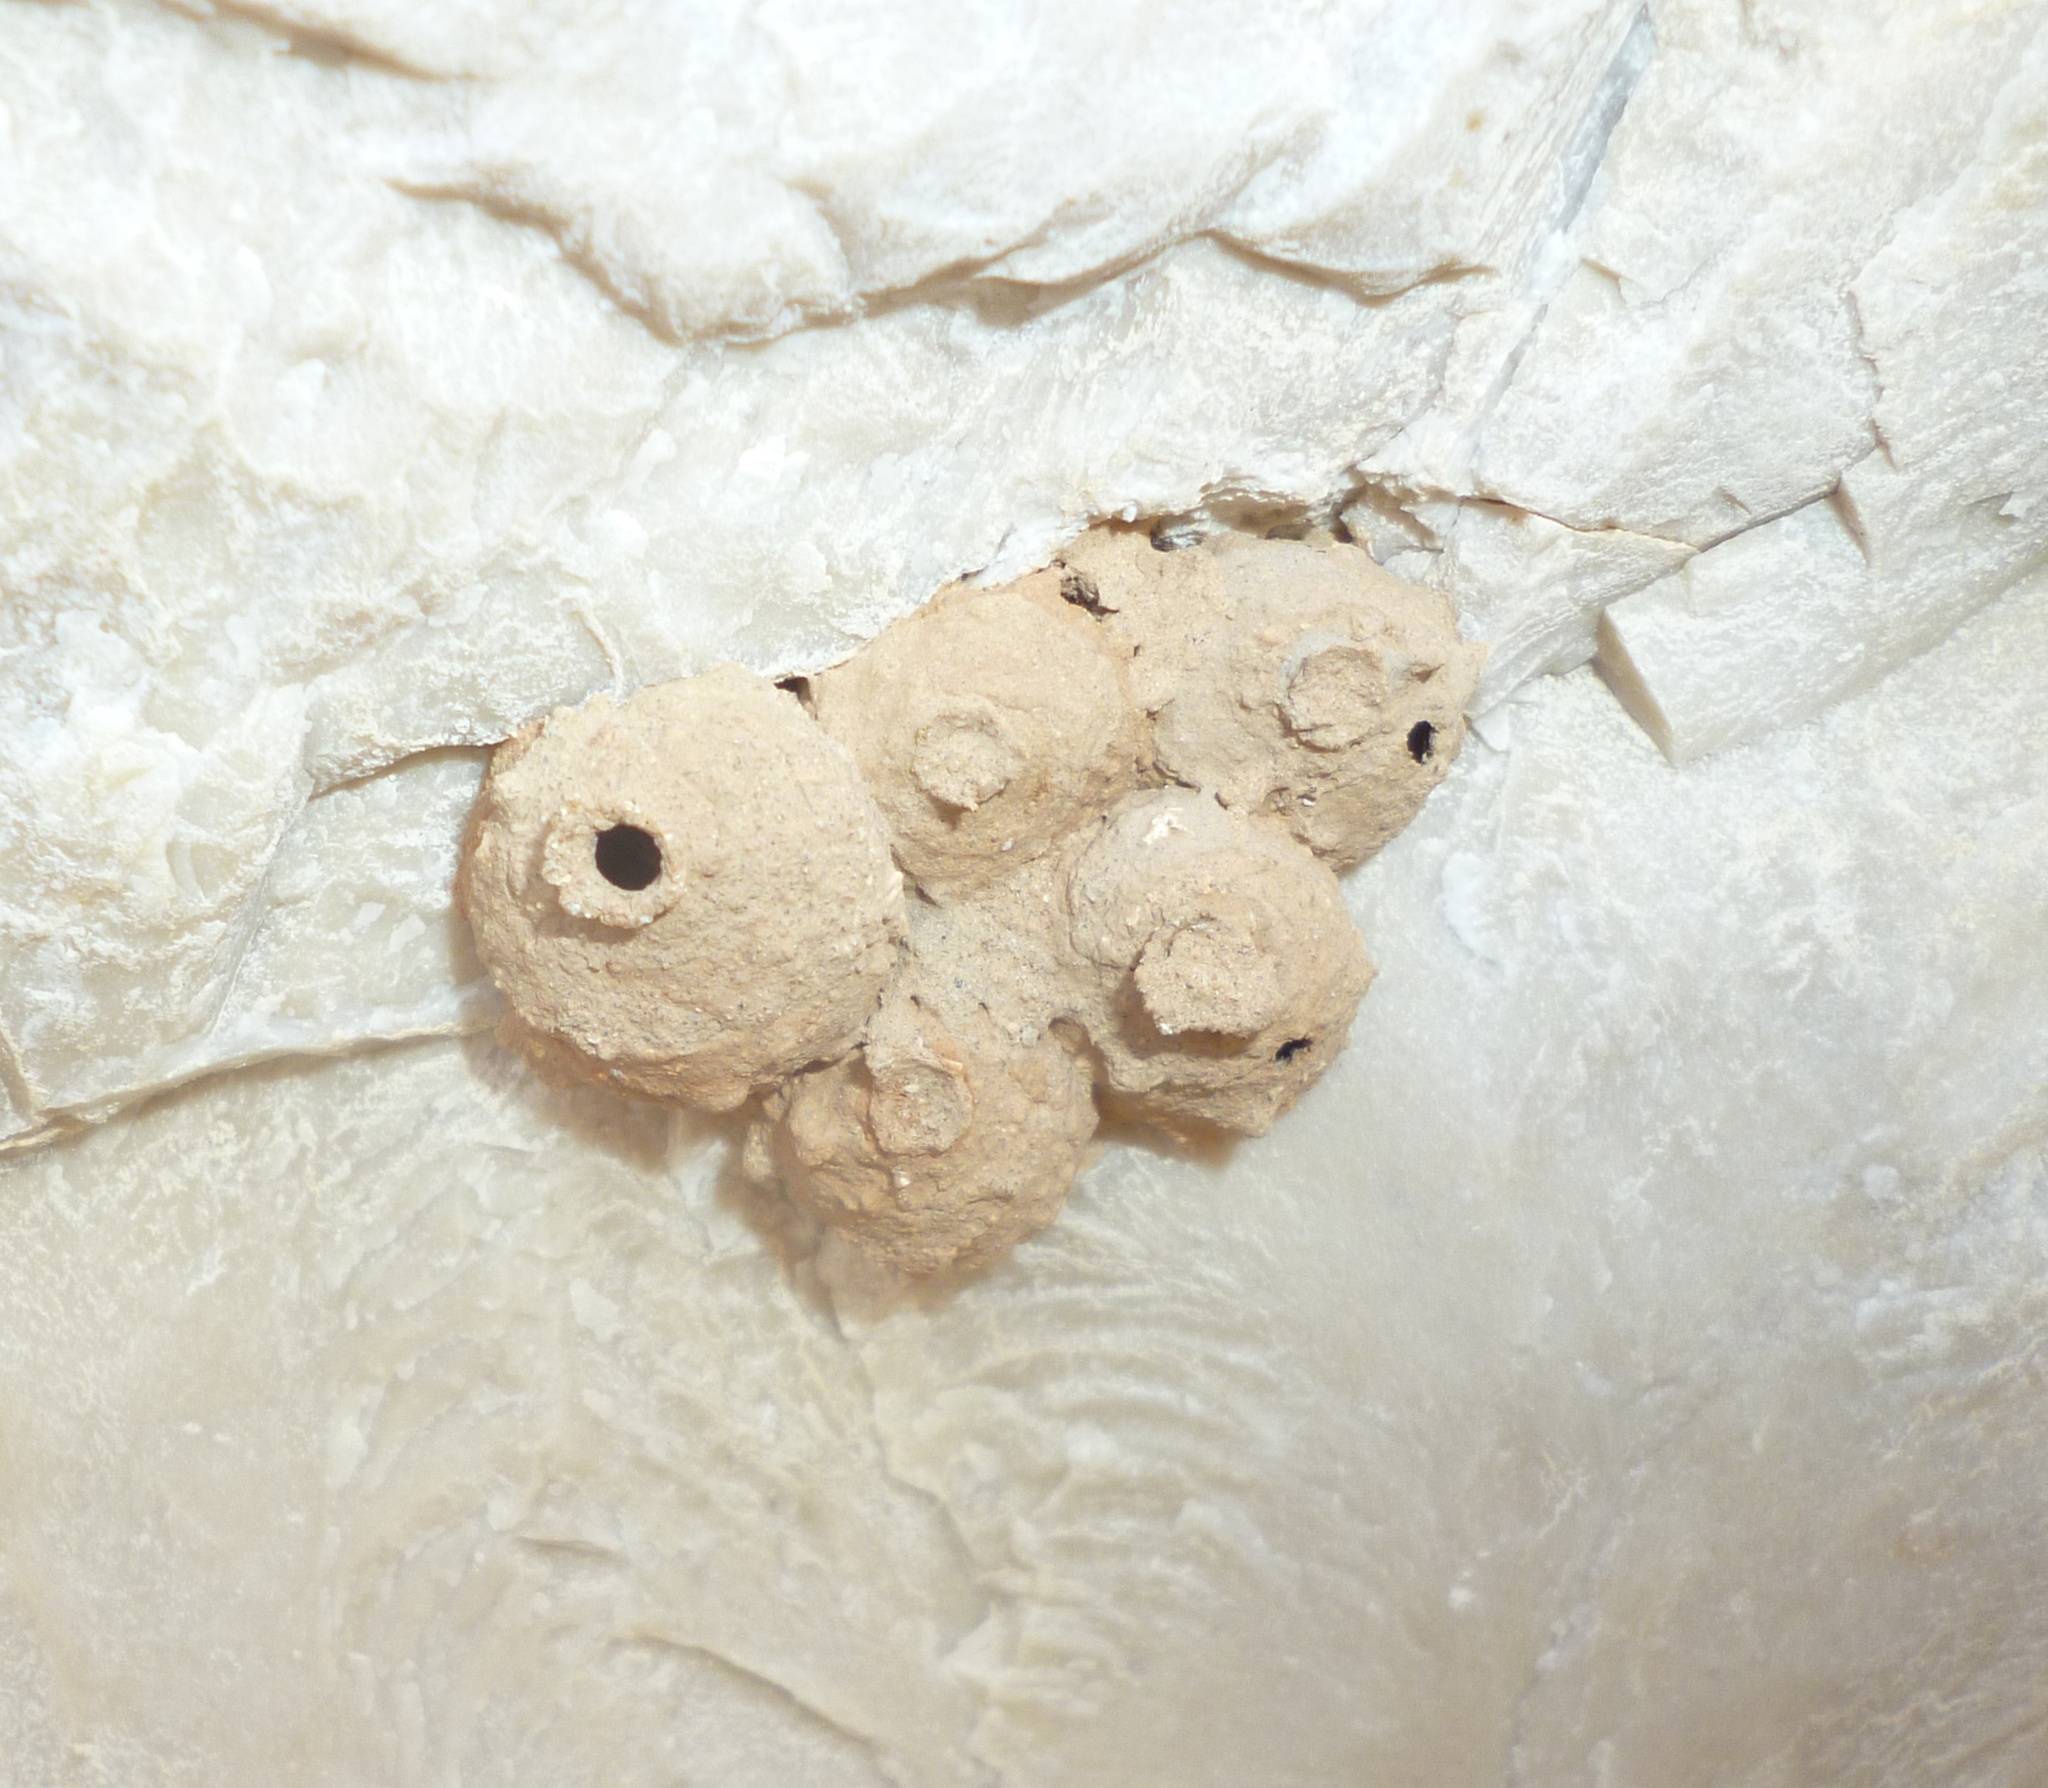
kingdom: Animalia
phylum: Arthropoda
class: Insecta
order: Hymenoptera
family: Eumenidae
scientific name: Eumenidae
